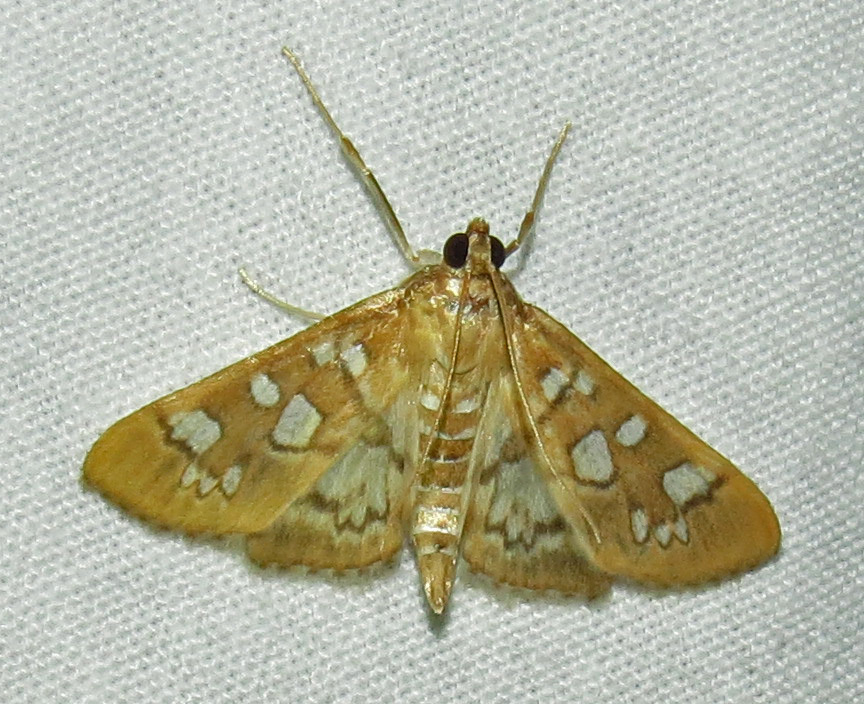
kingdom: Animalia
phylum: Arthropoda
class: Insecta
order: Lepidoptera
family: Crambidae
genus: Samea
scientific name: Samea baccatalis
